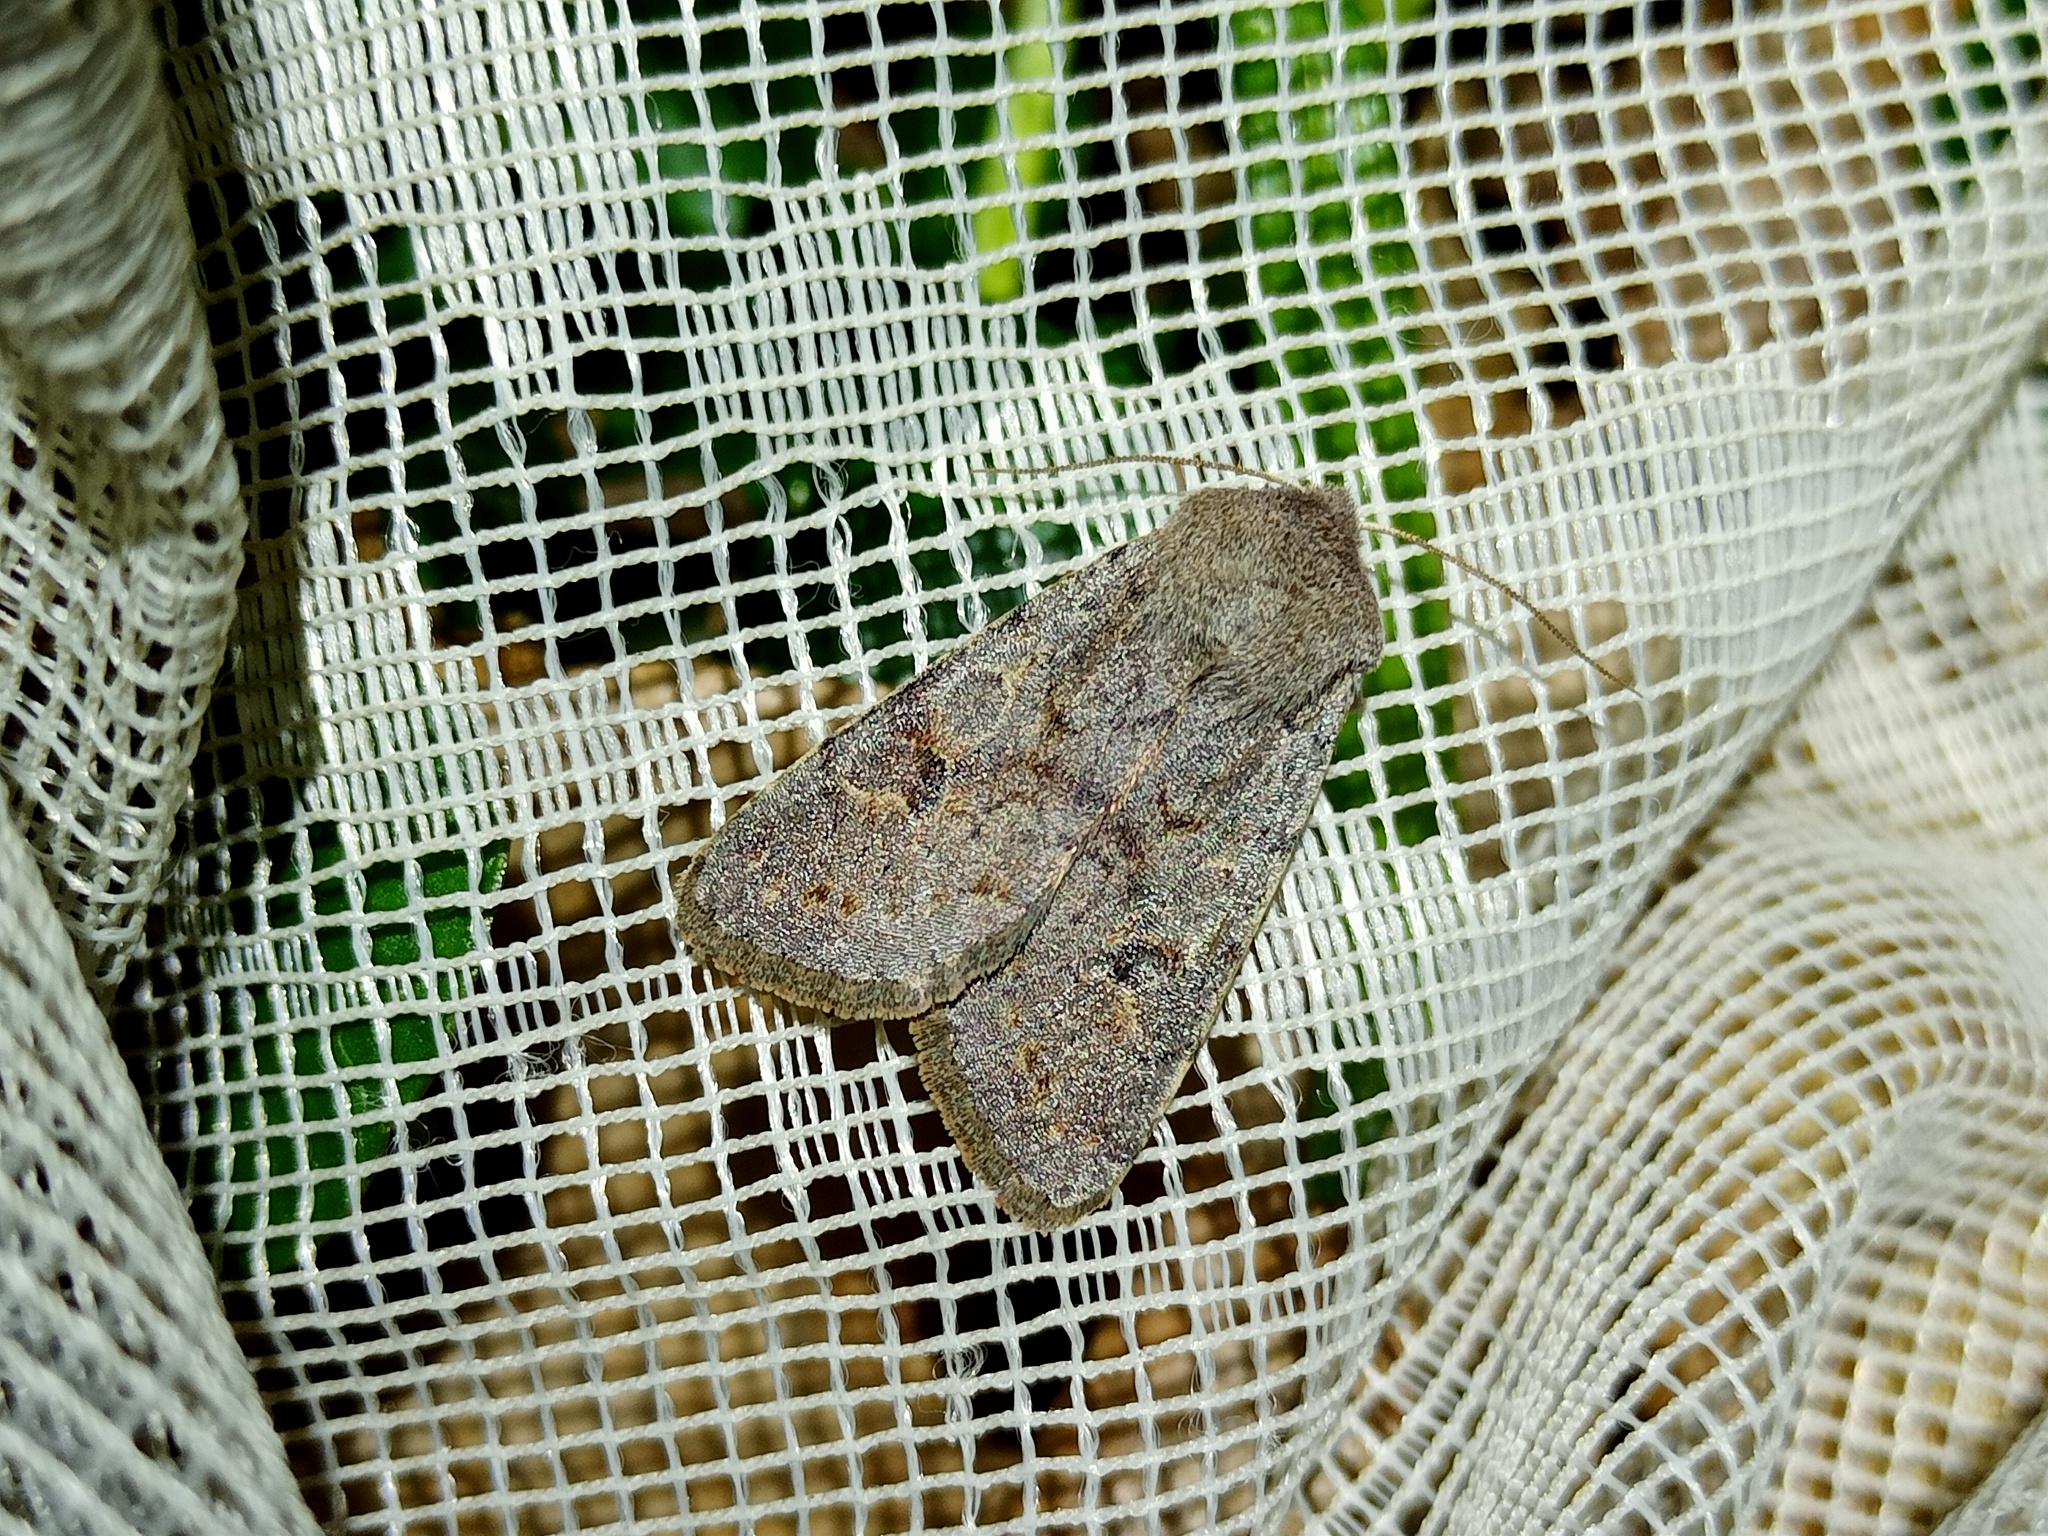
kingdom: Animalia
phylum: Arthropoda
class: Insecta
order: Lepidoptera
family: Noctuidae
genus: Orthosia
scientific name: Orthosia populeti
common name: Lead-coloured drab
